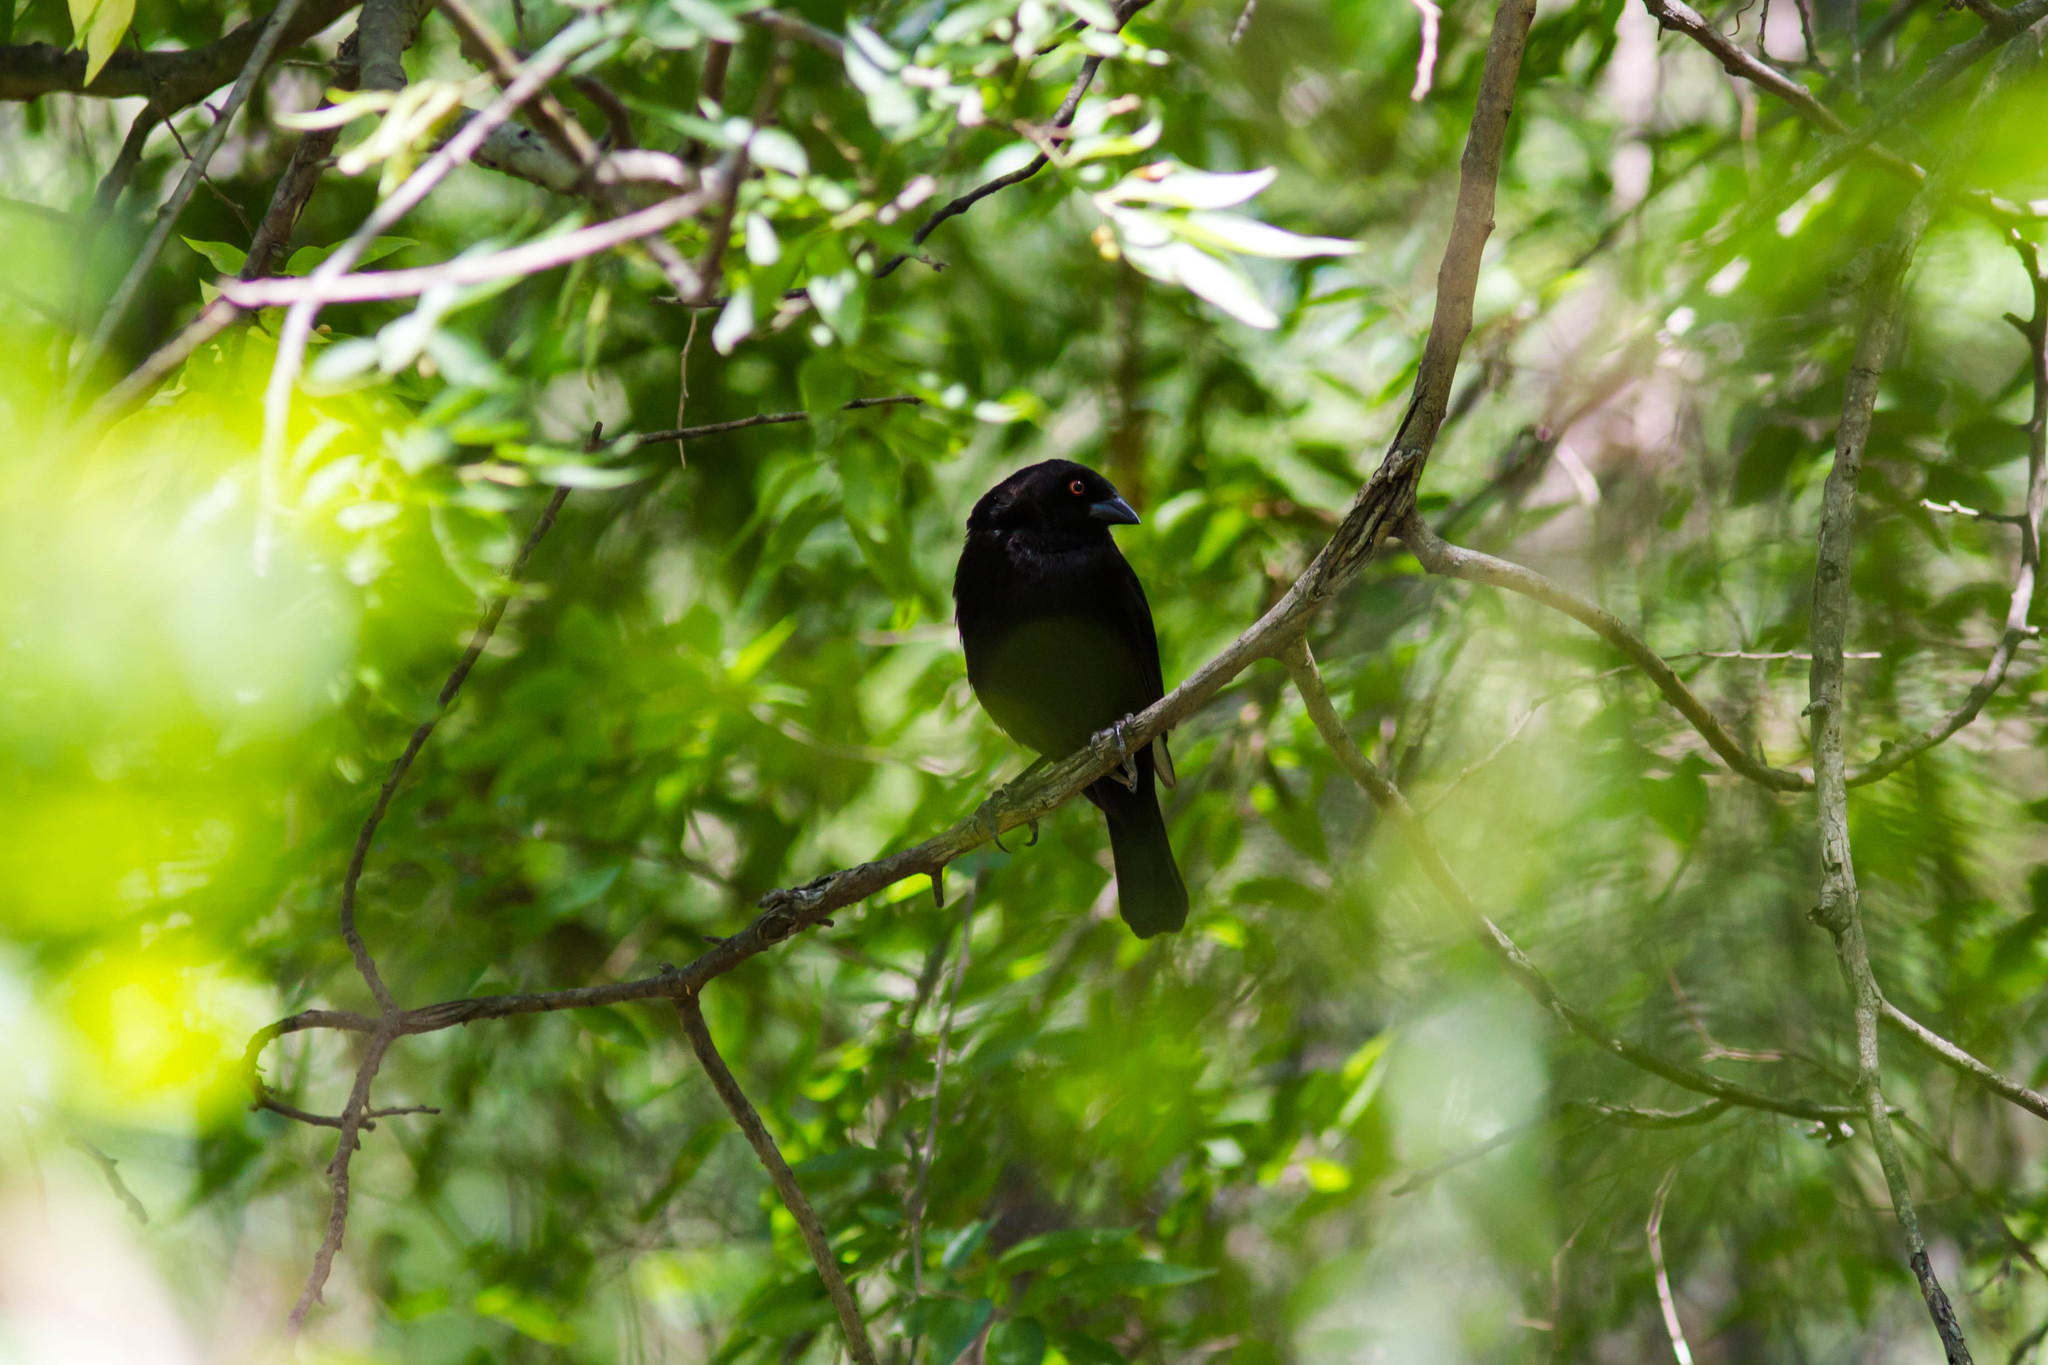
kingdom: Animalia
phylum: Chordata
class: Aves
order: Passeriformes
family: Icteridae
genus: Molothrus
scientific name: Molothrus aeneus
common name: Bronzed cowbird
